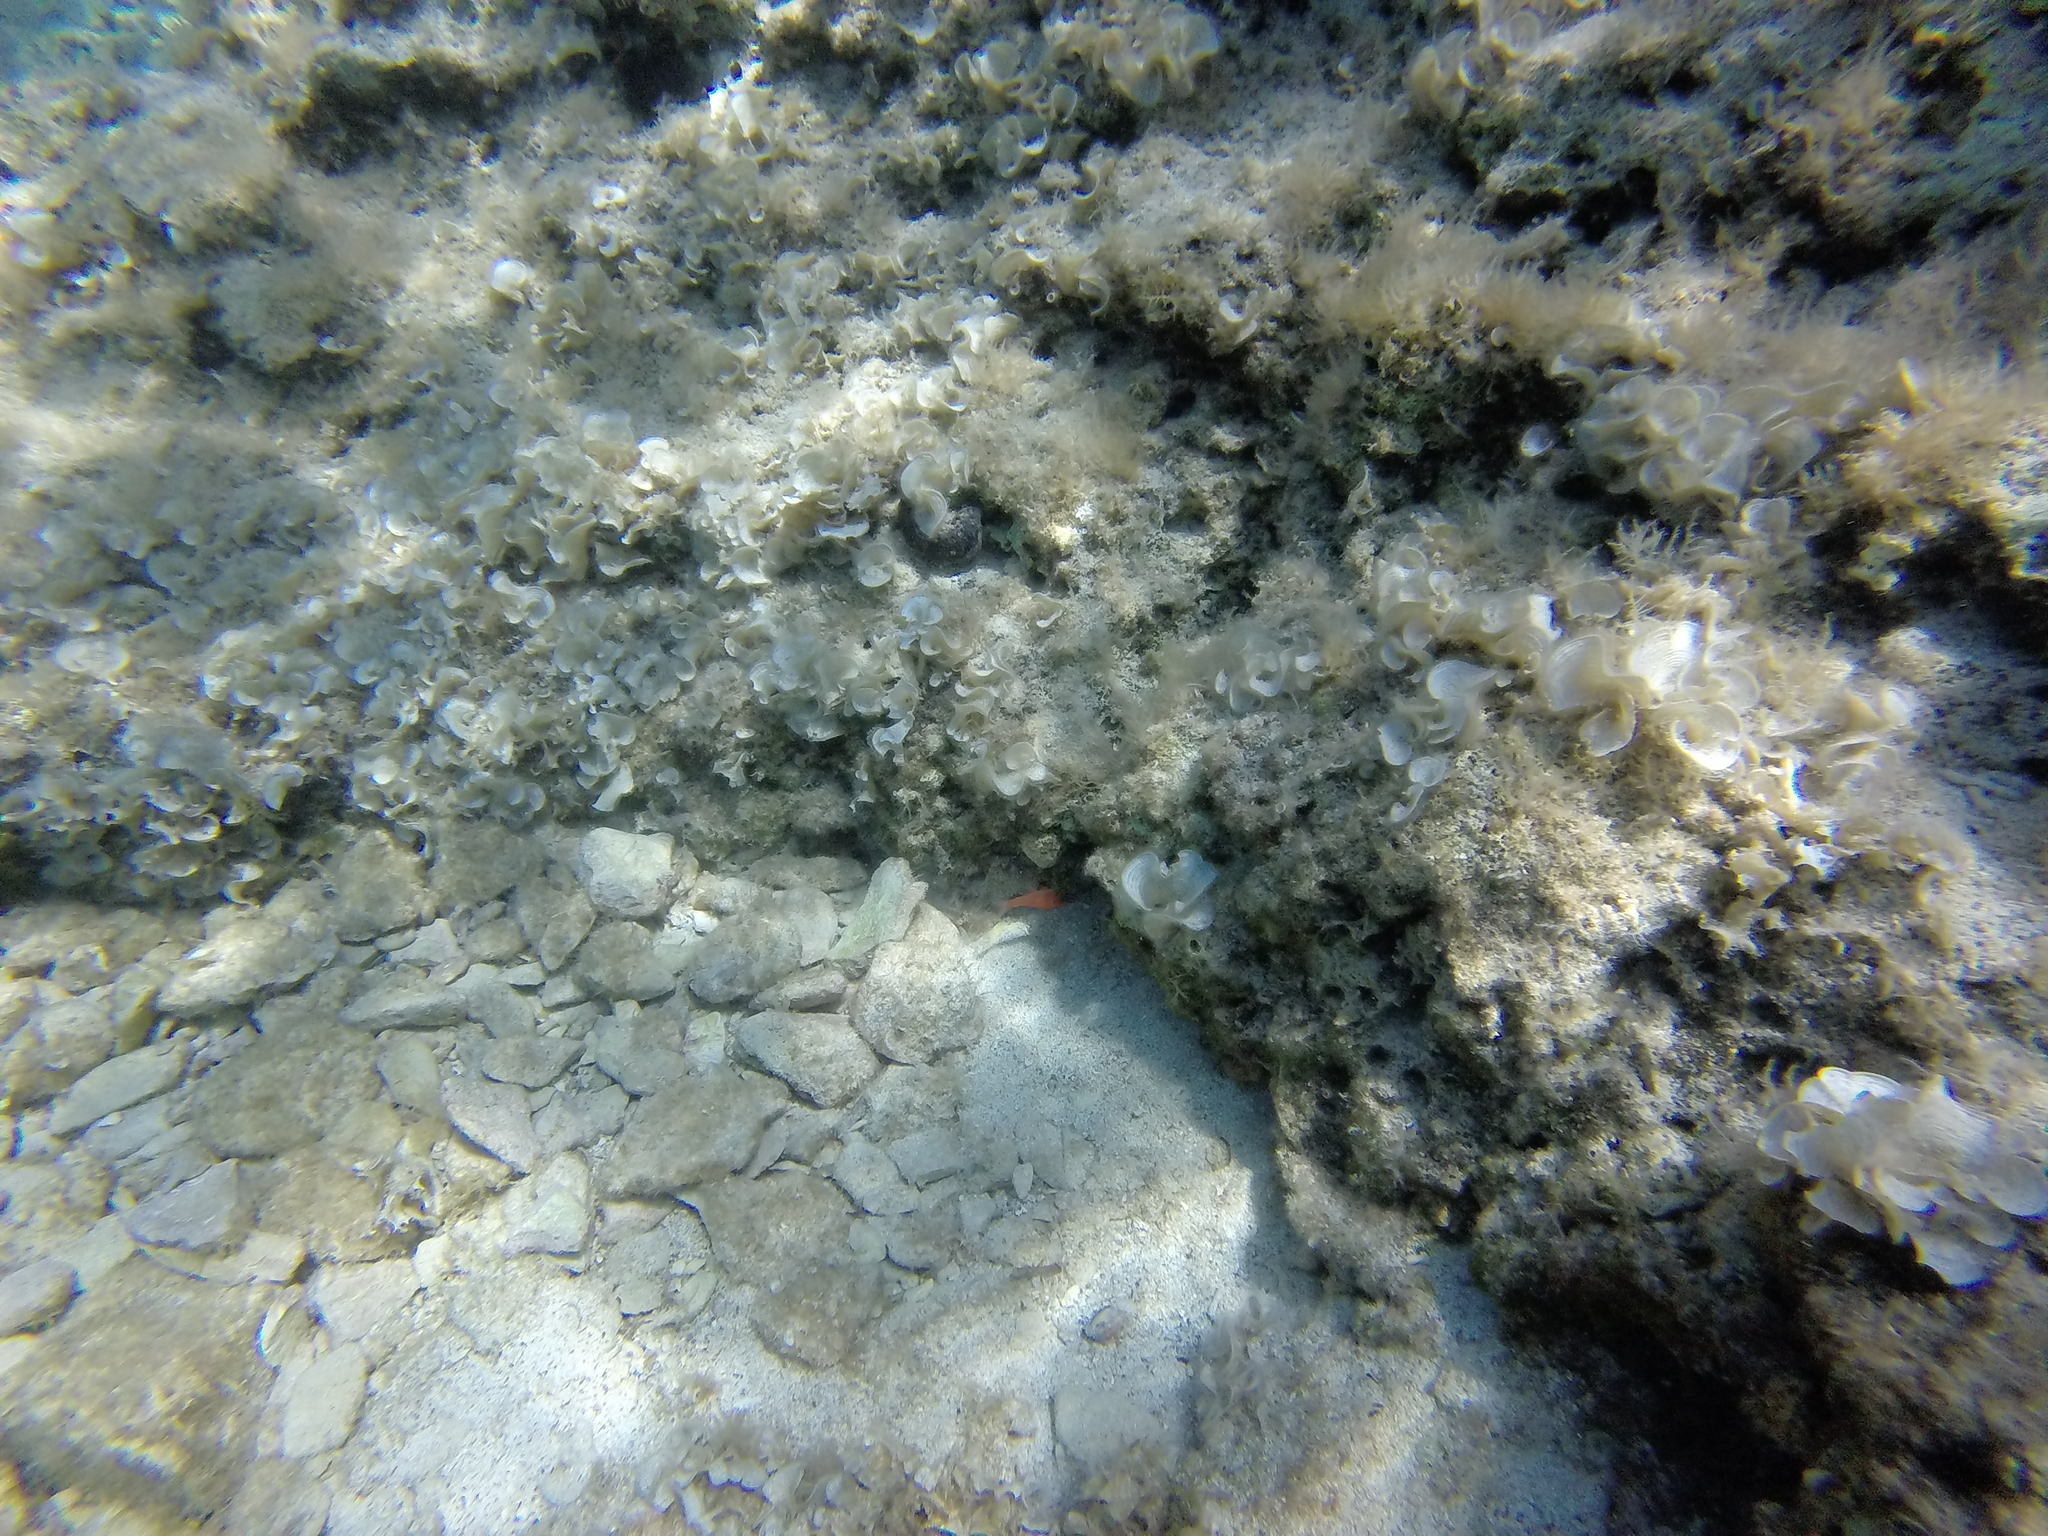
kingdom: Animalia
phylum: Chordata
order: Perciformes
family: Apogonidae
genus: Apogon
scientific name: Apogon imberbis
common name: Cardinal fish
